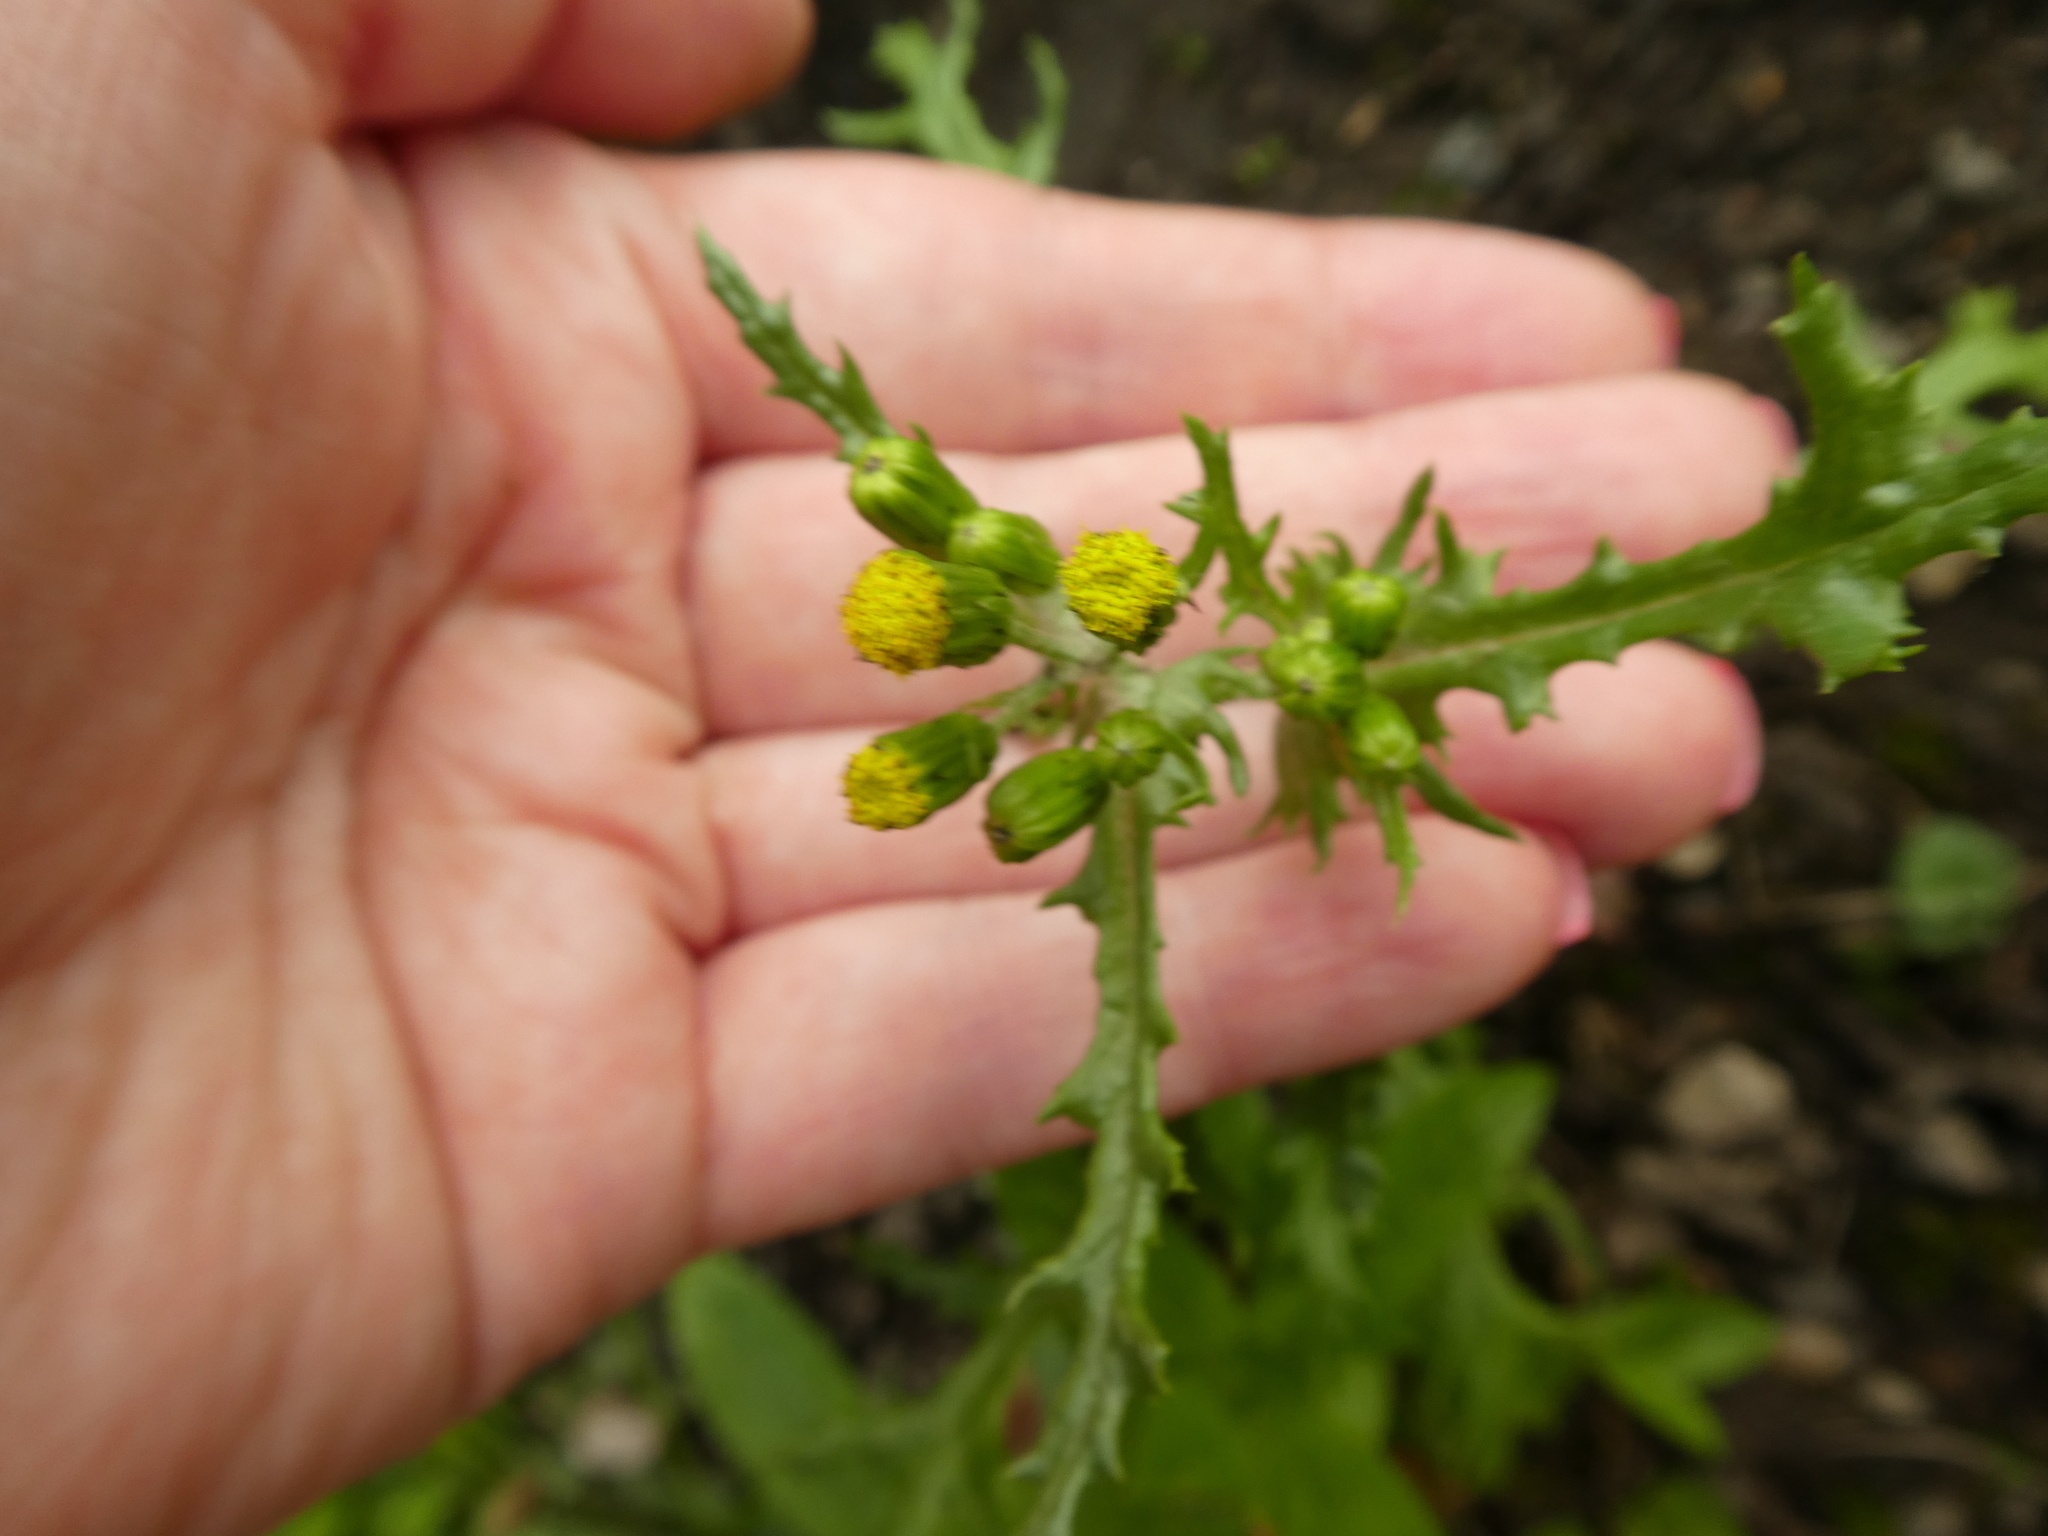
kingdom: Plantae
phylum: Tracheophyta
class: Magnoliopsida
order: Asterales
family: Asteraceae
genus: Senecio
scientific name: Senecio vulgaris
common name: Old-man-in-the-spring
